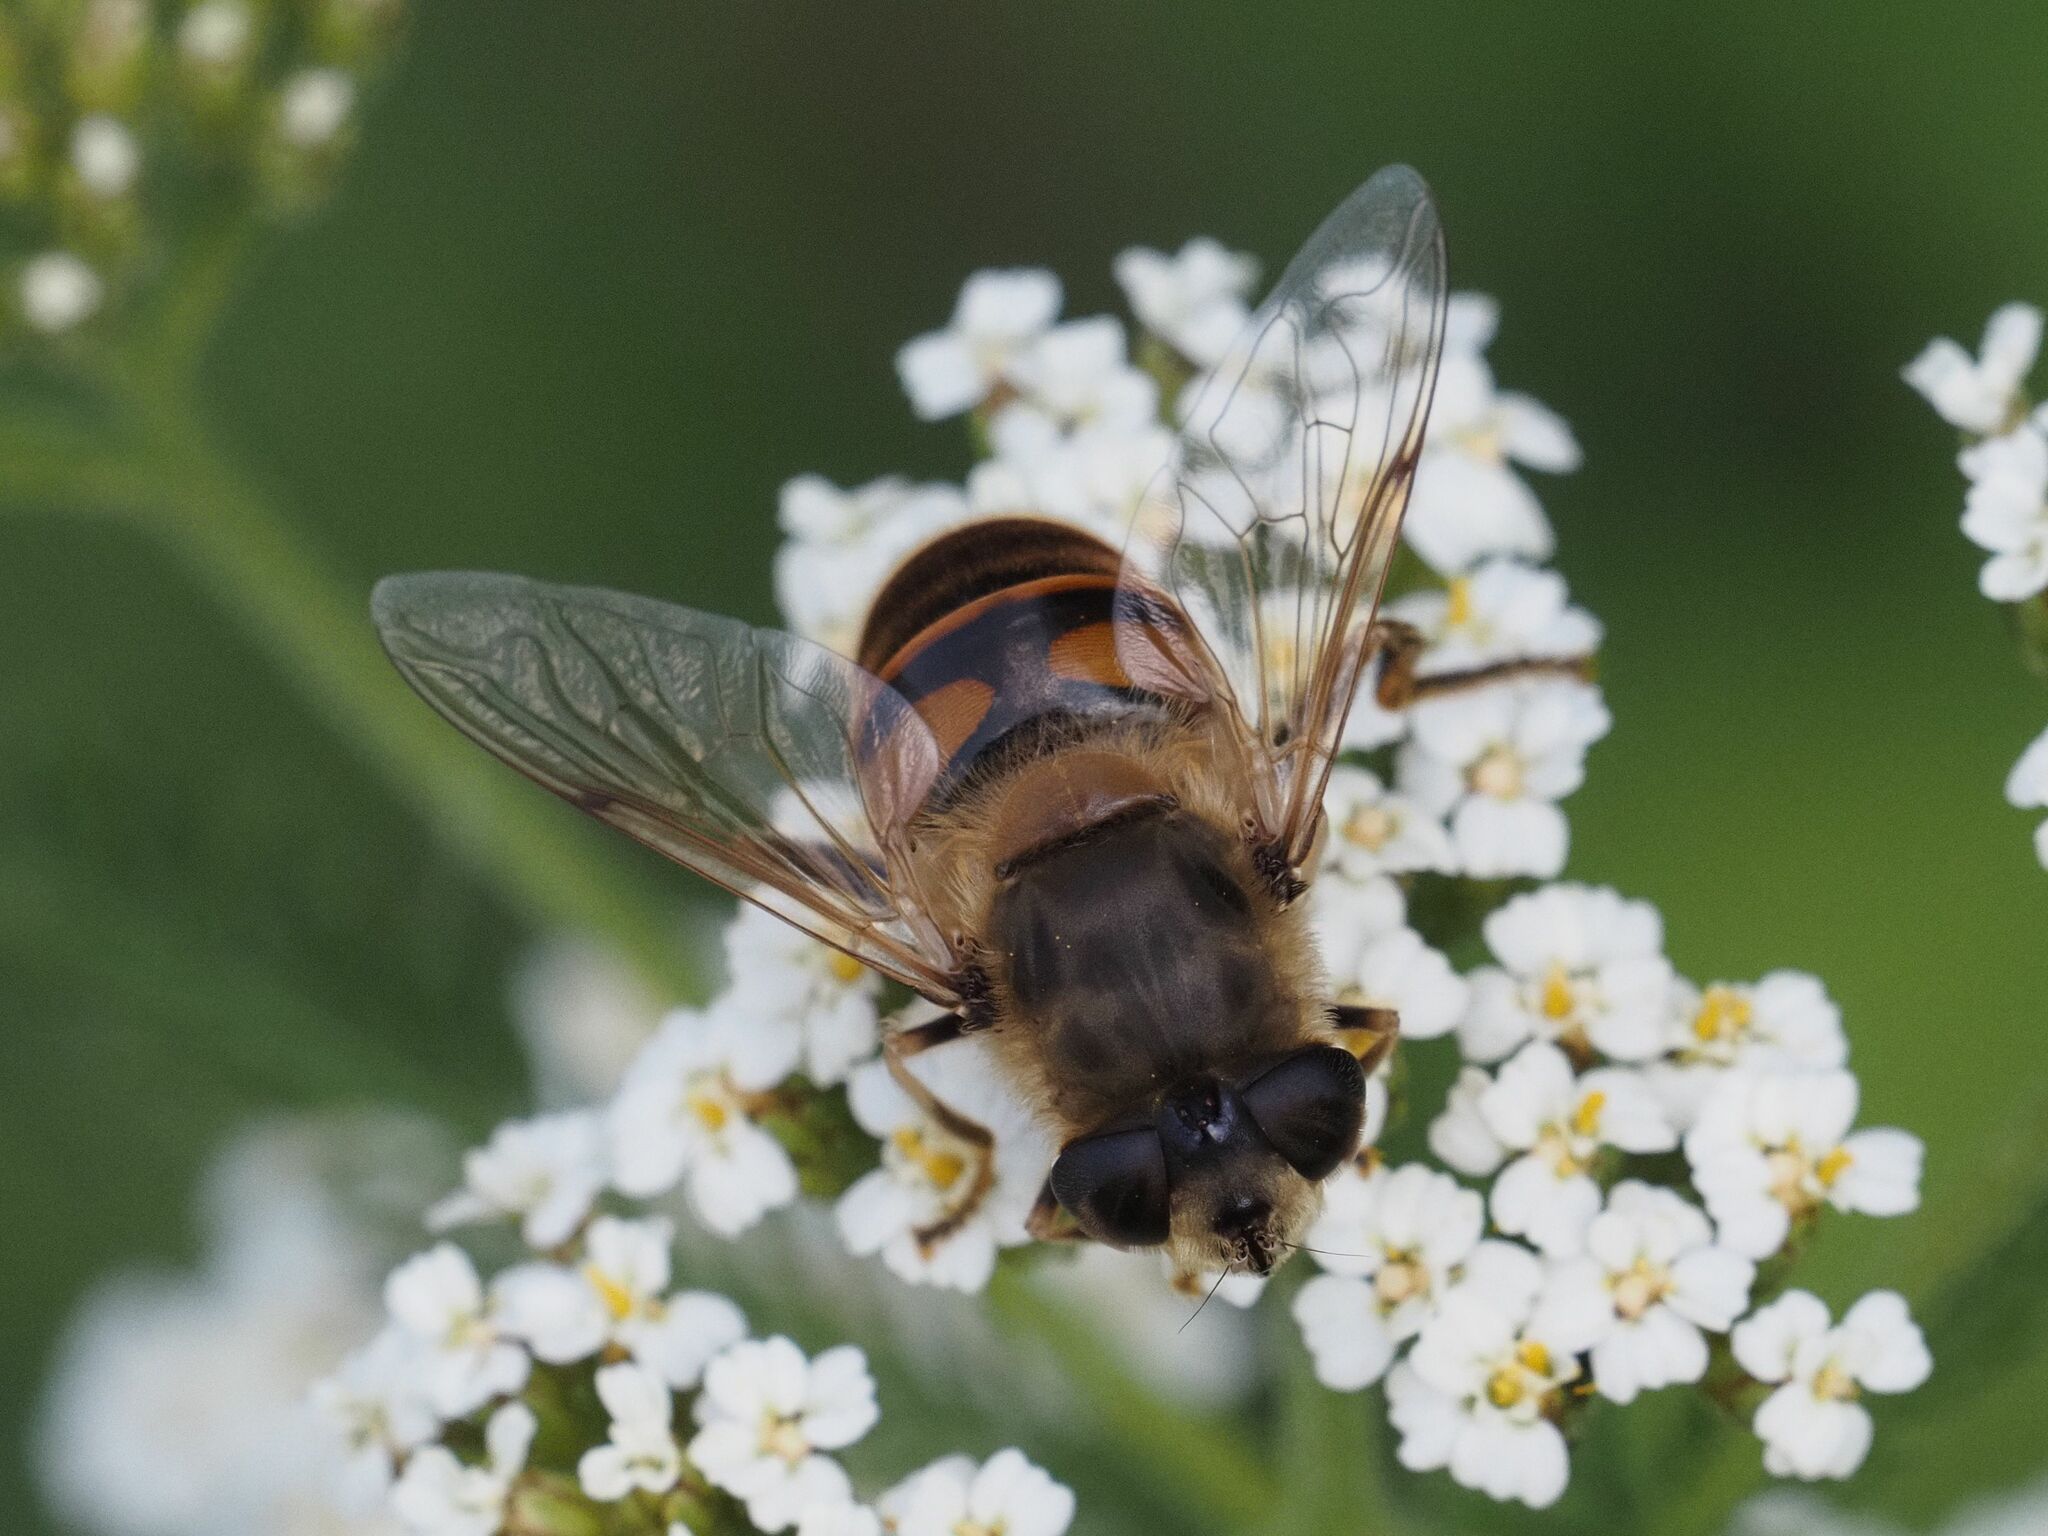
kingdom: Animalia
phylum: Arthropoda
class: Insecta
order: Diptera
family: Syrphidae
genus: Eristalis
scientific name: Eristalis tenax
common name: Drone fly
